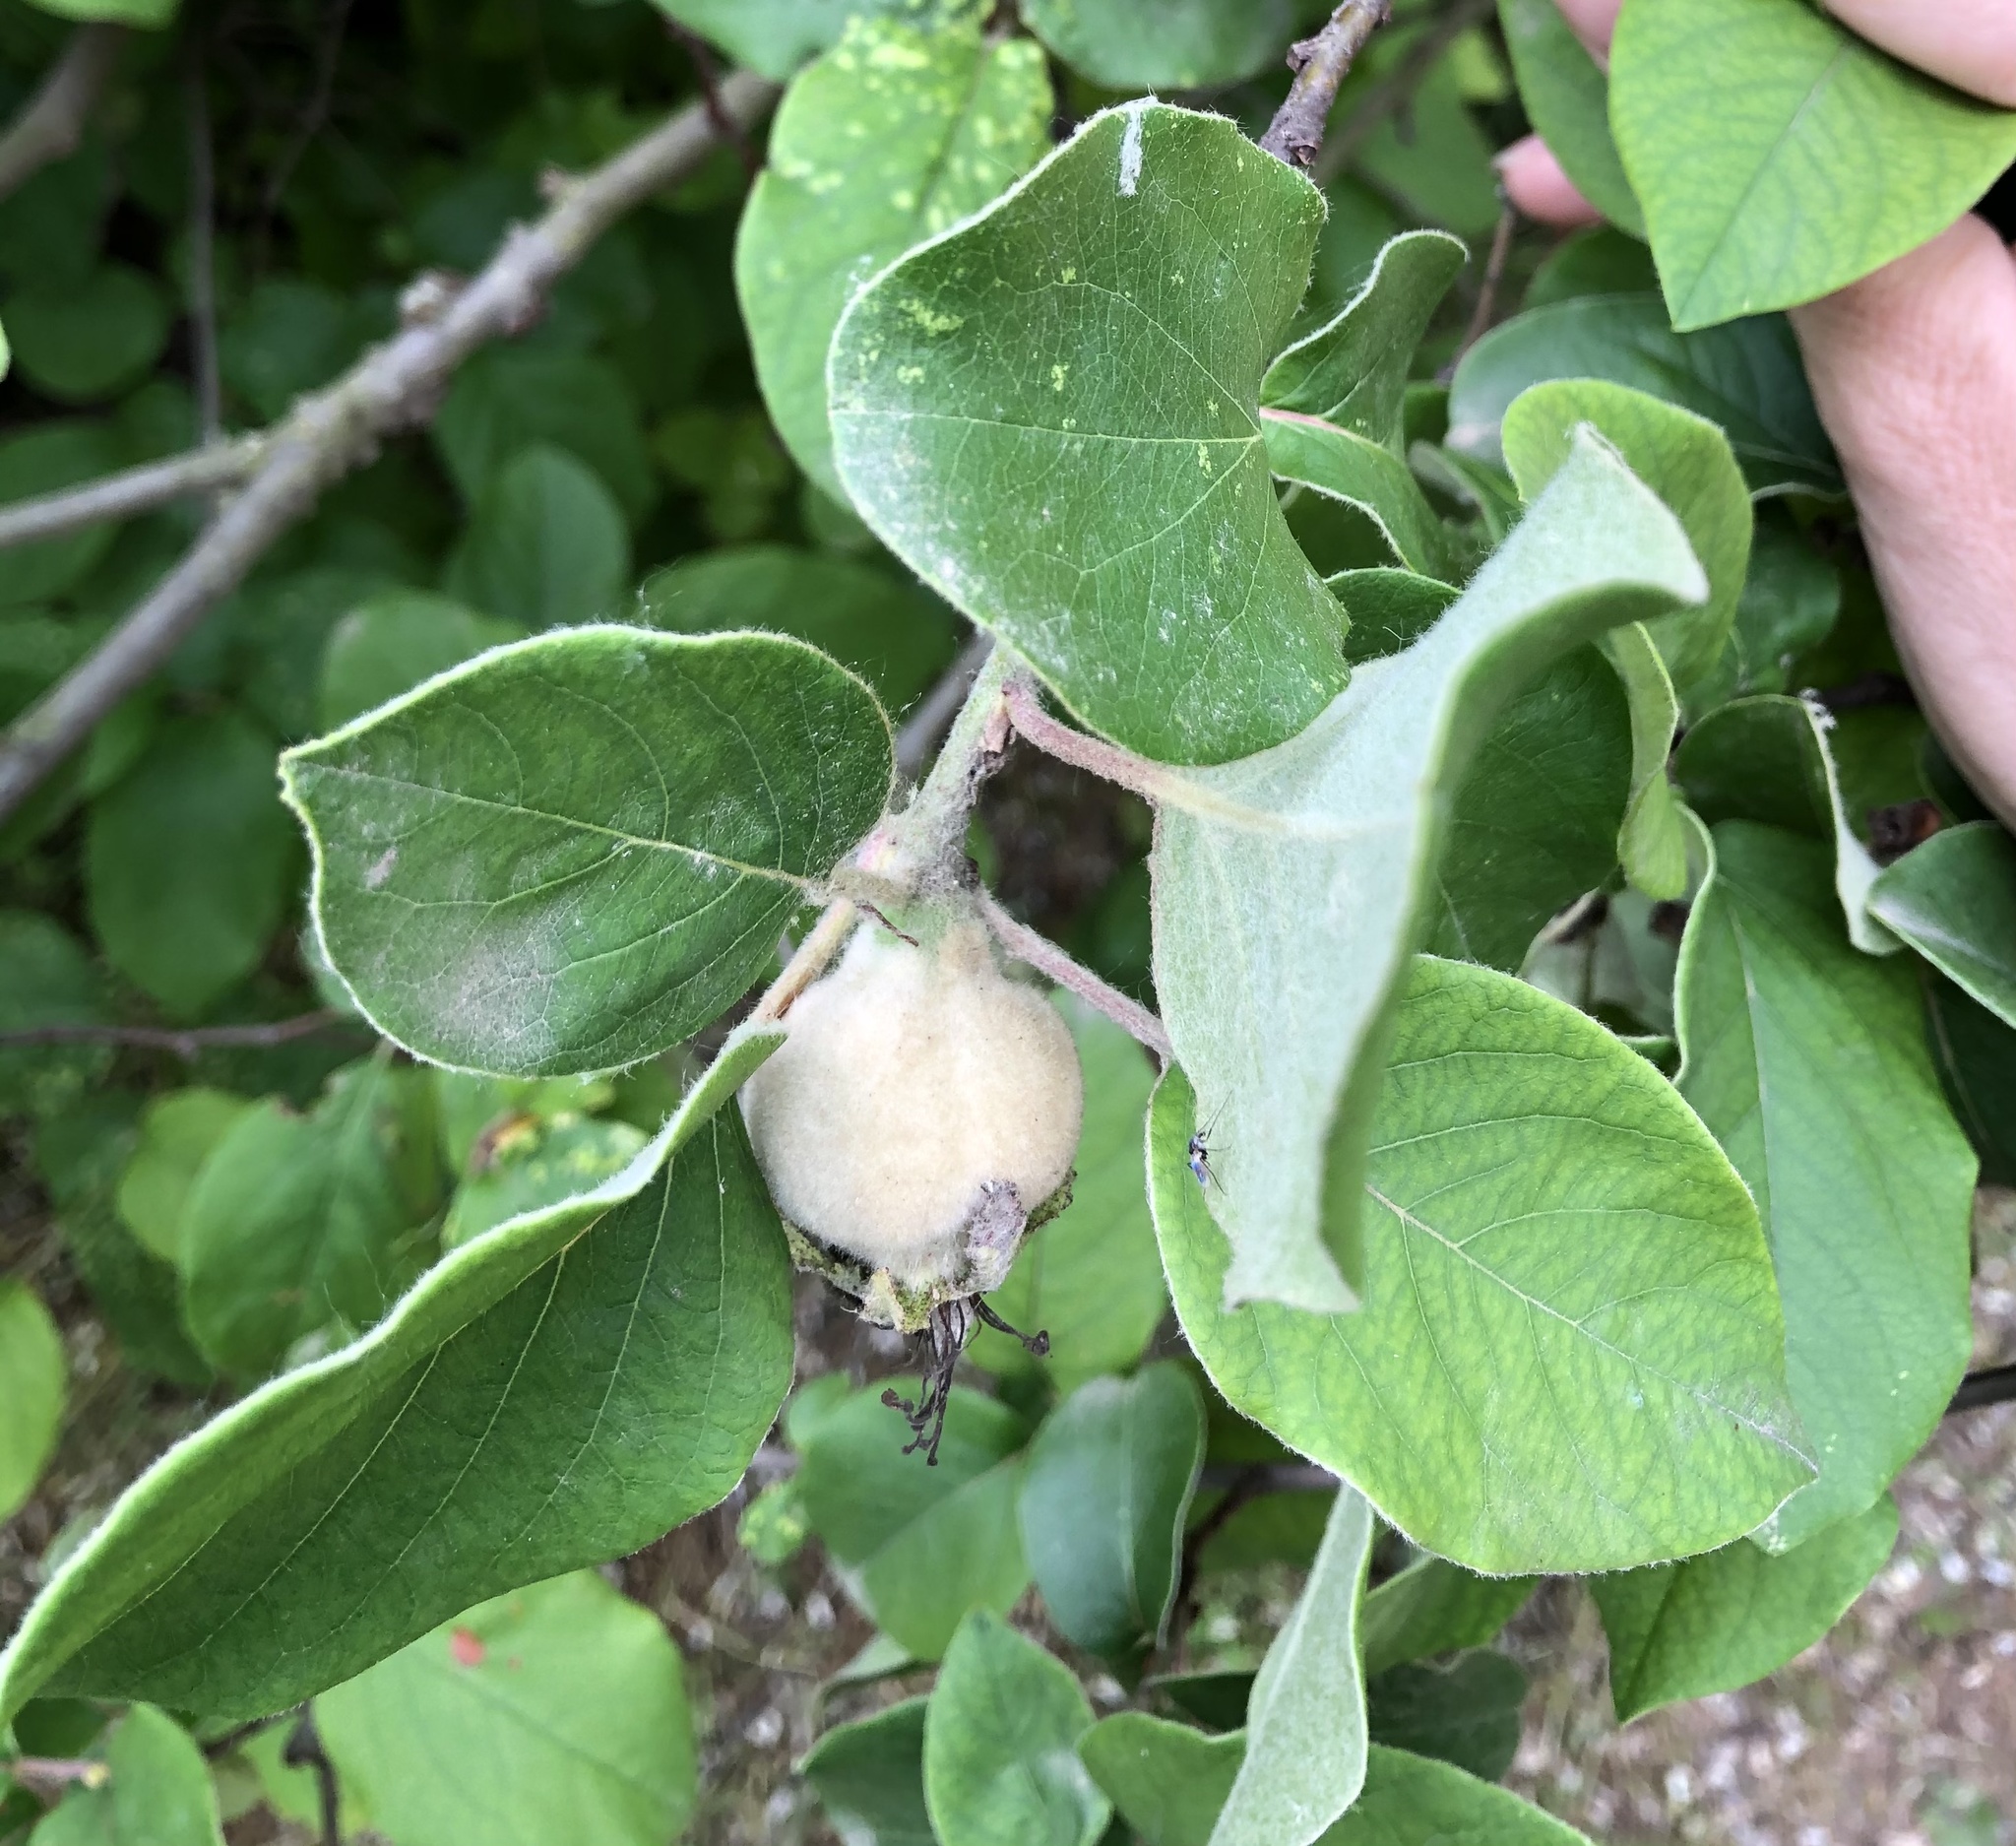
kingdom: Plantae
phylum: Tracheophyta
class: Magnoliopsida
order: Rosales
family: Rosaceae
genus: Cydonia
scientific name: Cydonia oblonga
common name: Quince
